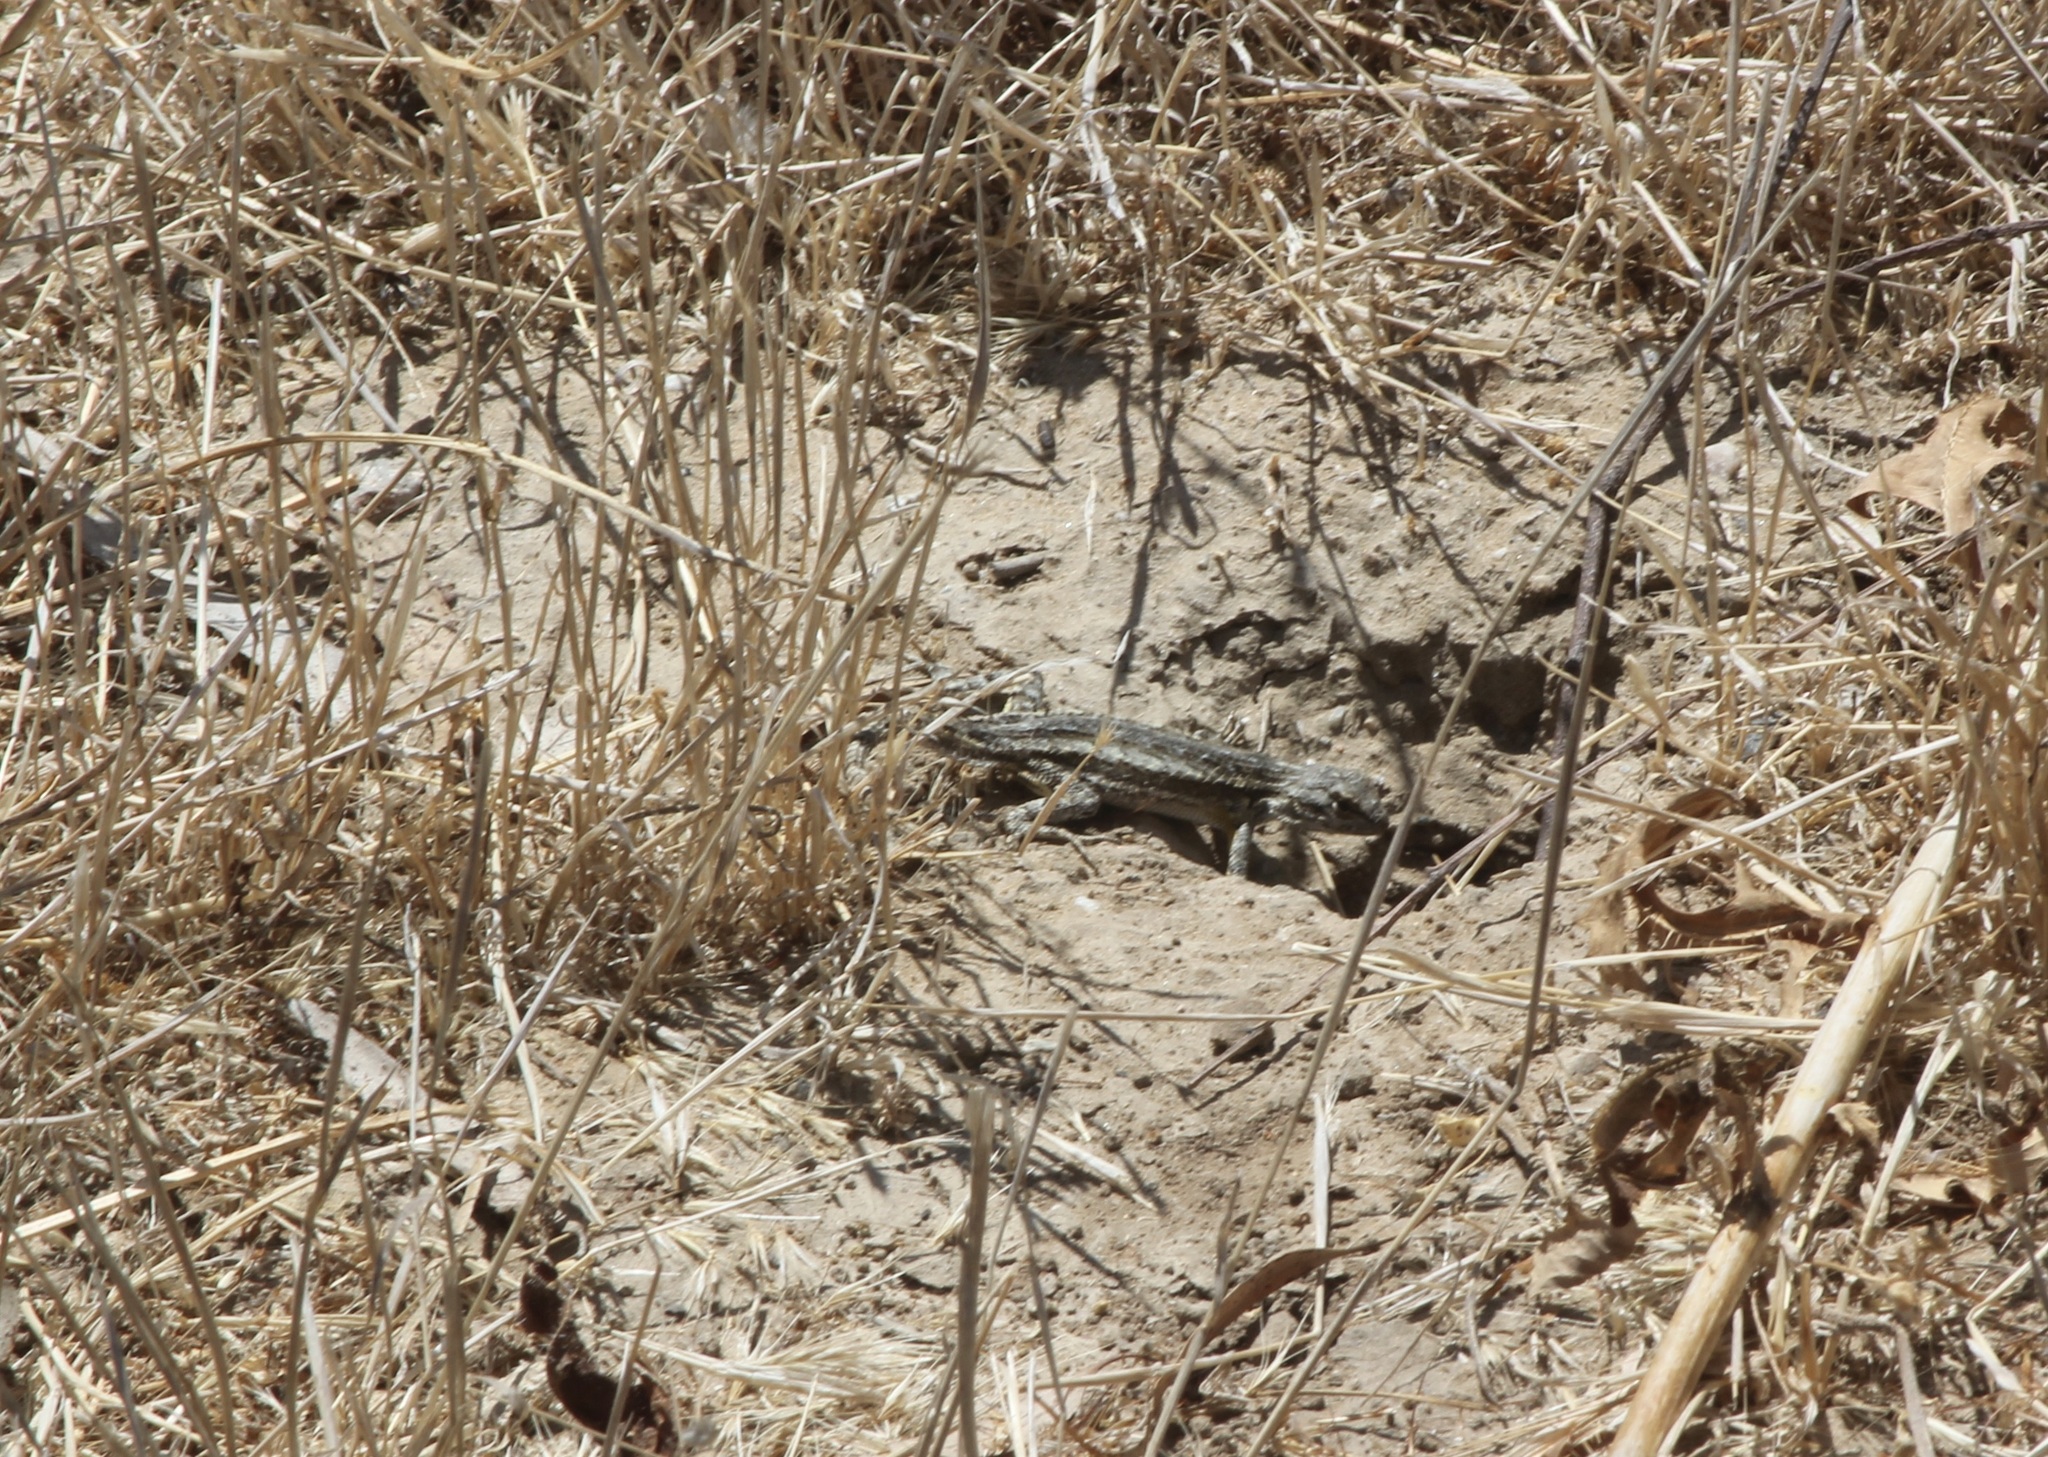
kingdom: Animalia
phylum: Chordata
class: Squamata
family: Phrynosomatidae
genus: Sceloporus
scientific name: Sceloporus occidentalis
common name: Western fence lizard
